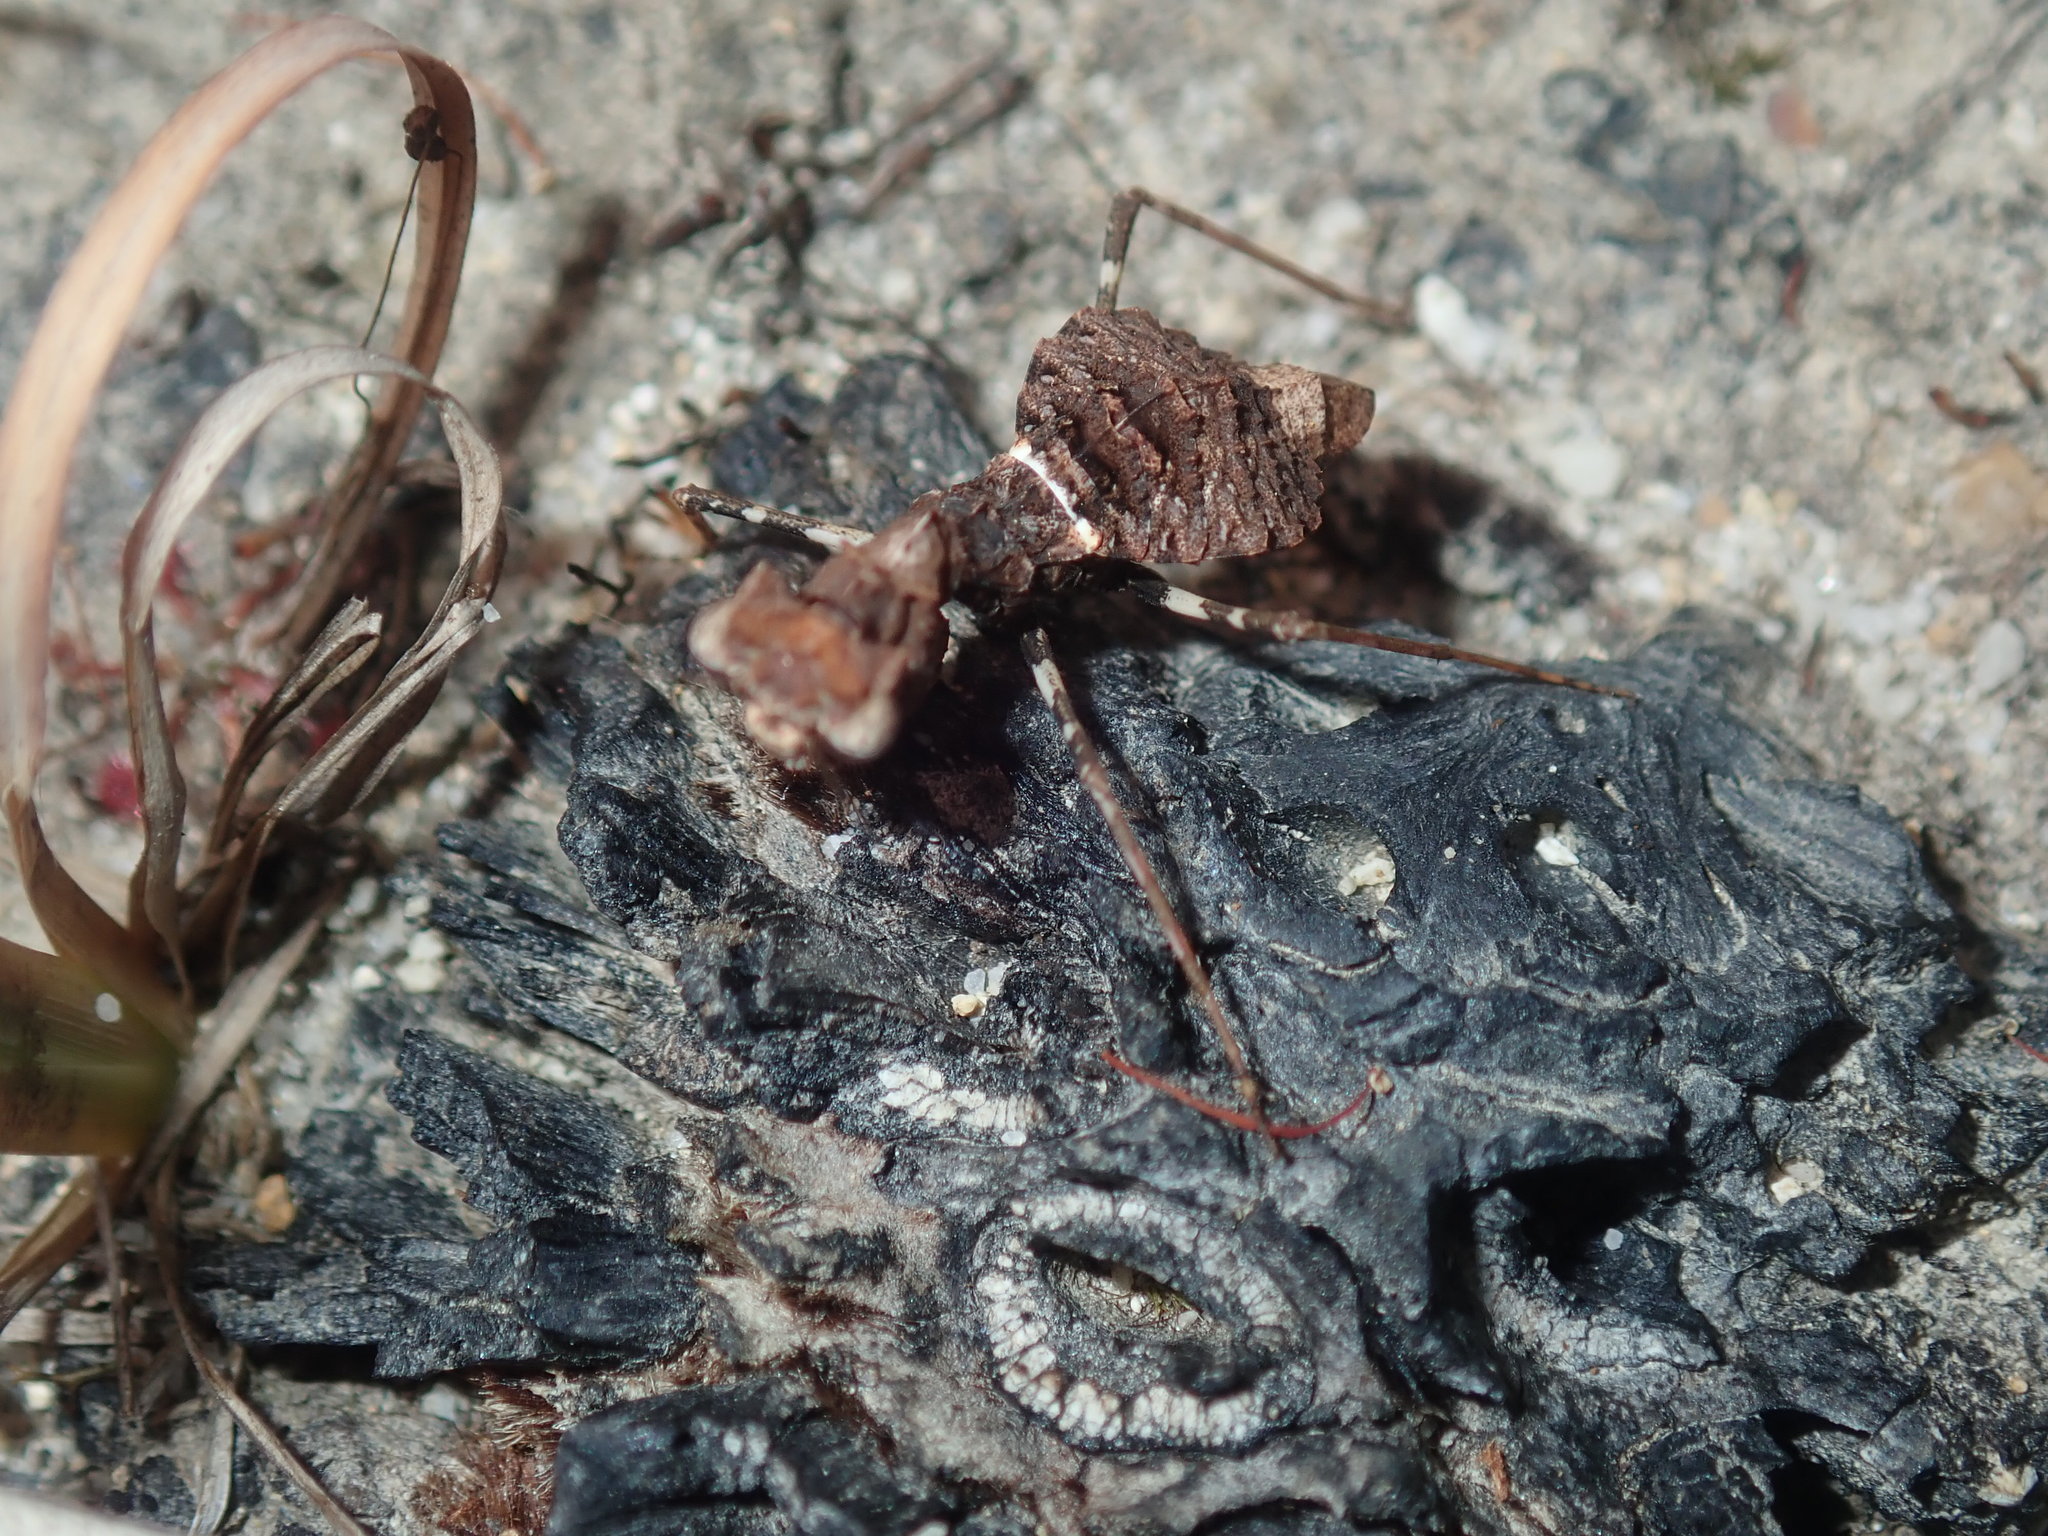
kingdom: Animalia
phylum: Arthropoda
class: Insecta
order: Mantodea
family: Nanomantidae
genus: Paraoxypilus
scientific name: Paraoxypilus tasmaniensis
